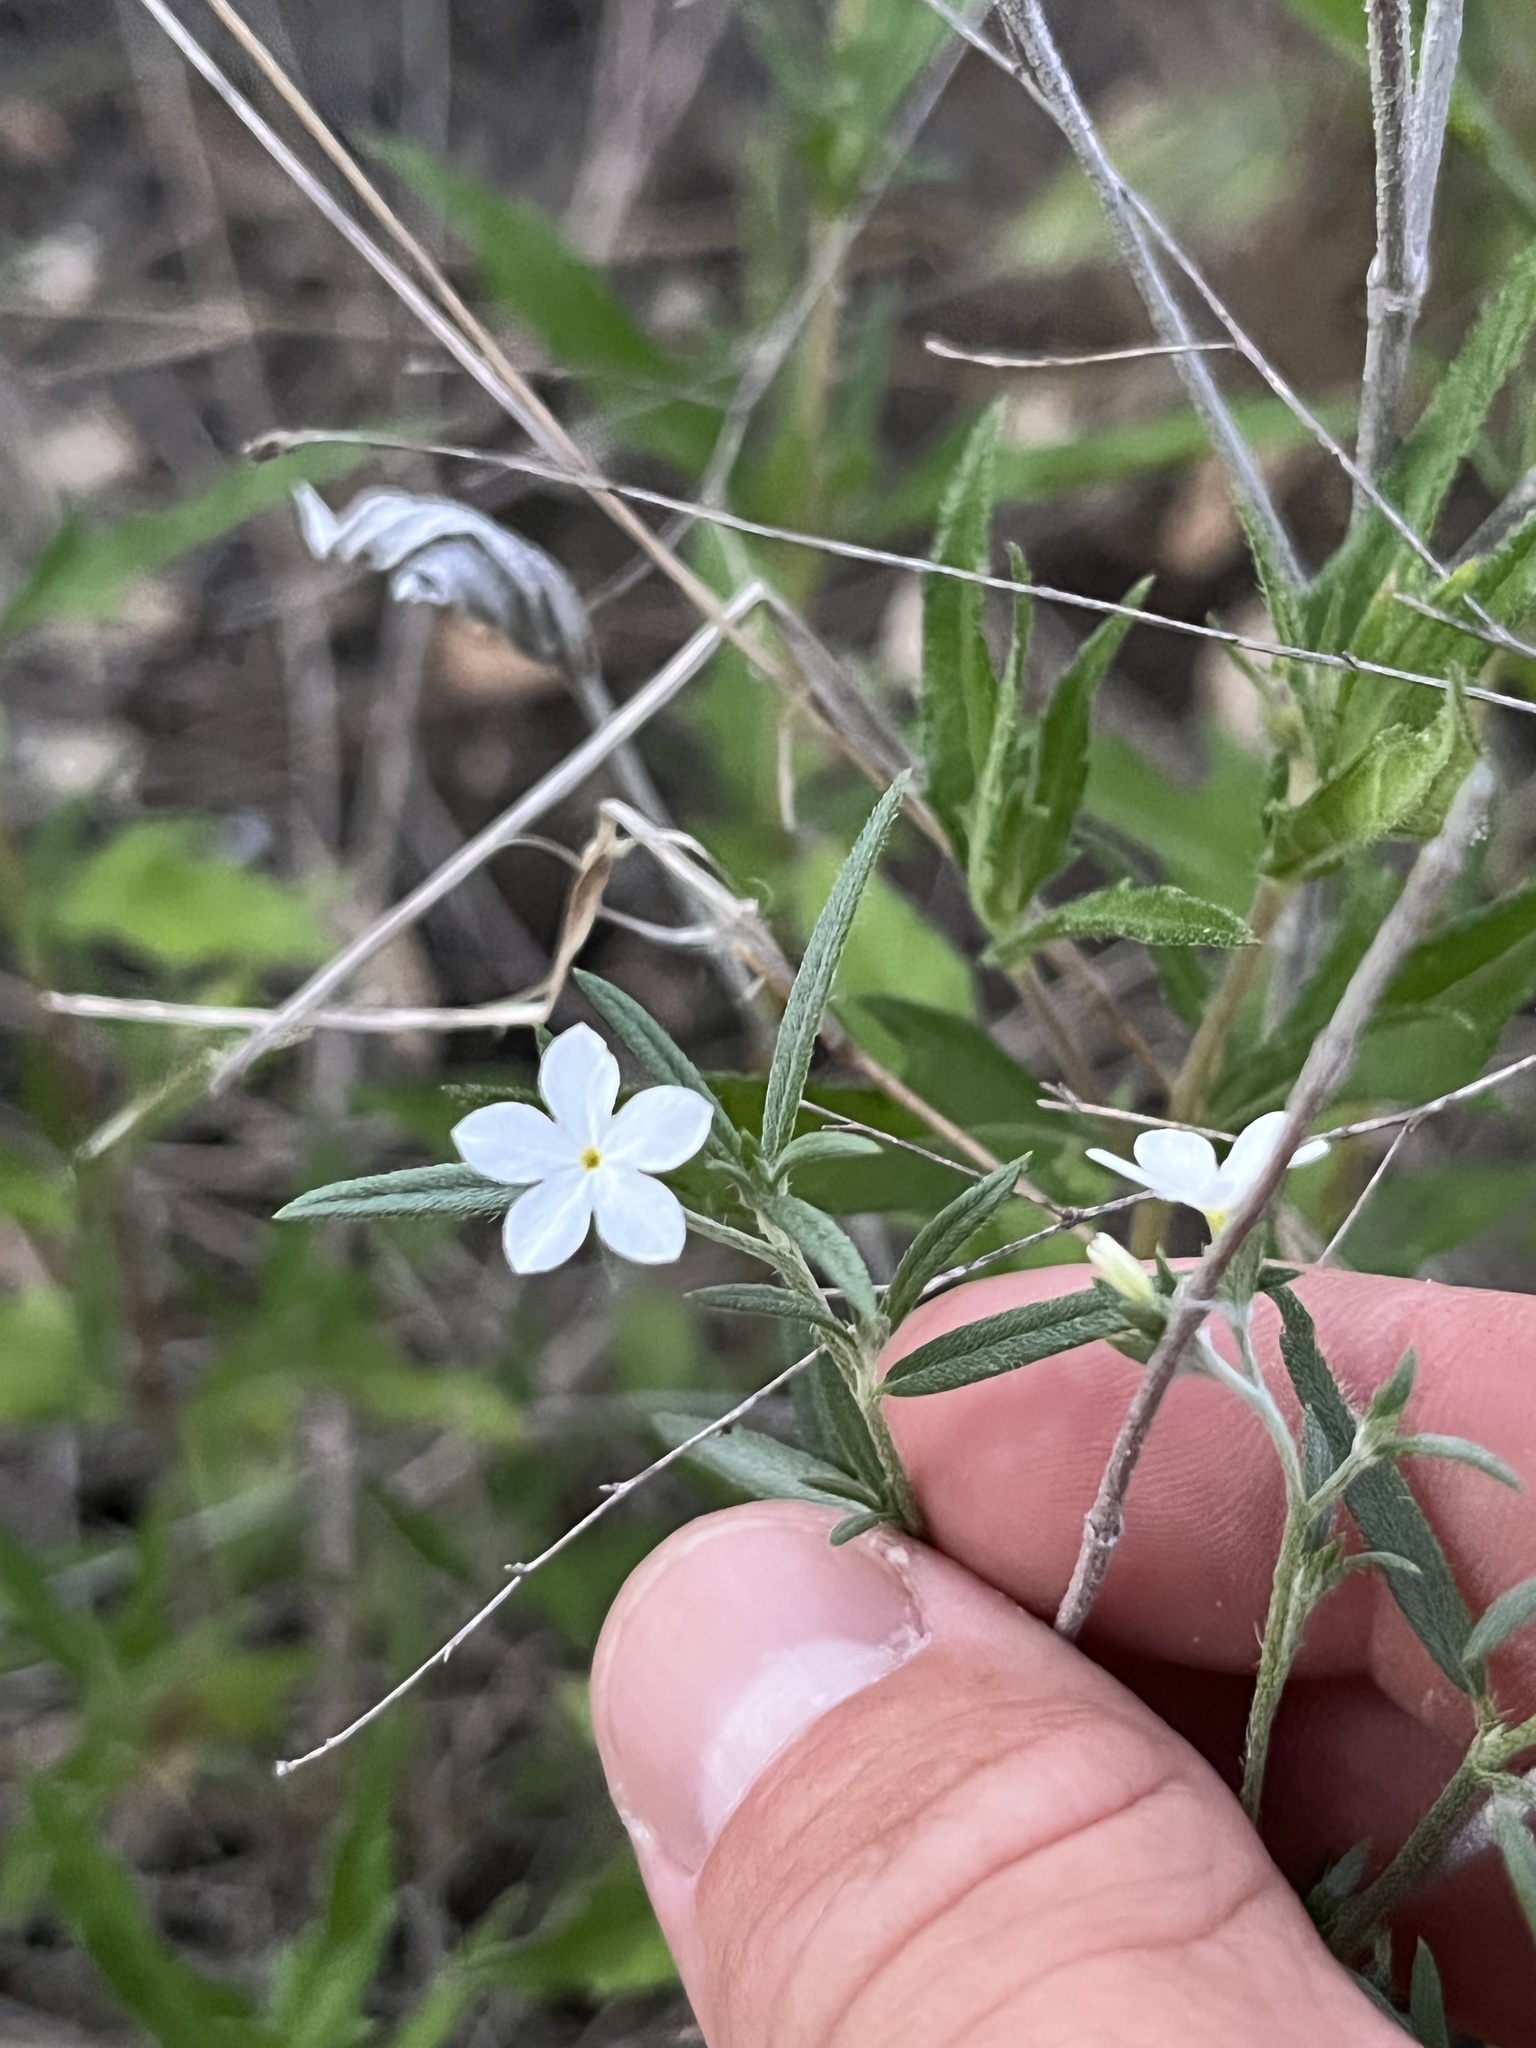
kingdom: Plantae
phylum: Tracheophyta
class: Magnoliopsida
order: Boraginales
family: Heliotropiaceae
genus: Euploca
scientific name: Euploca tenella
